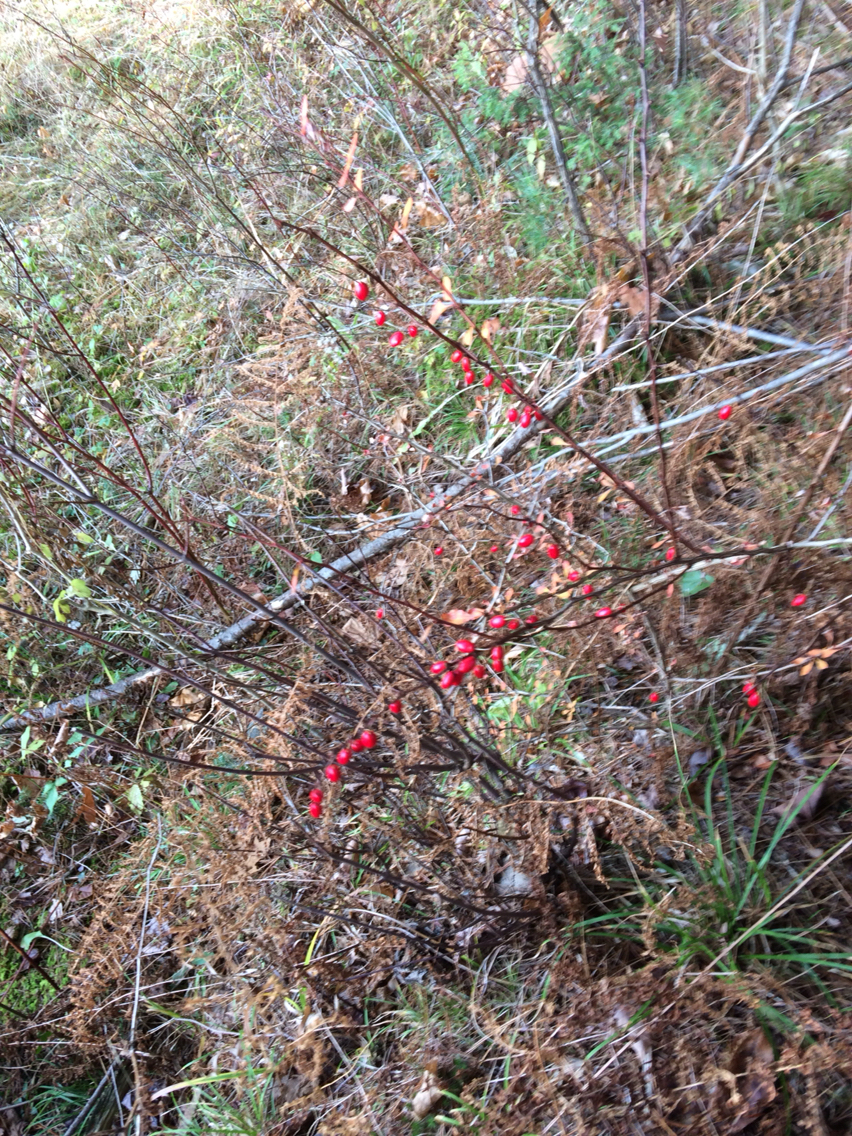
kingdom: Plantae
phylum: Tracheophyta
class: Magnoliopsida
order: Ranunculales
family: Berberidaceae
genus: Berberis
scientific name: Berberis thunbergii
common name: Japanese barberry
